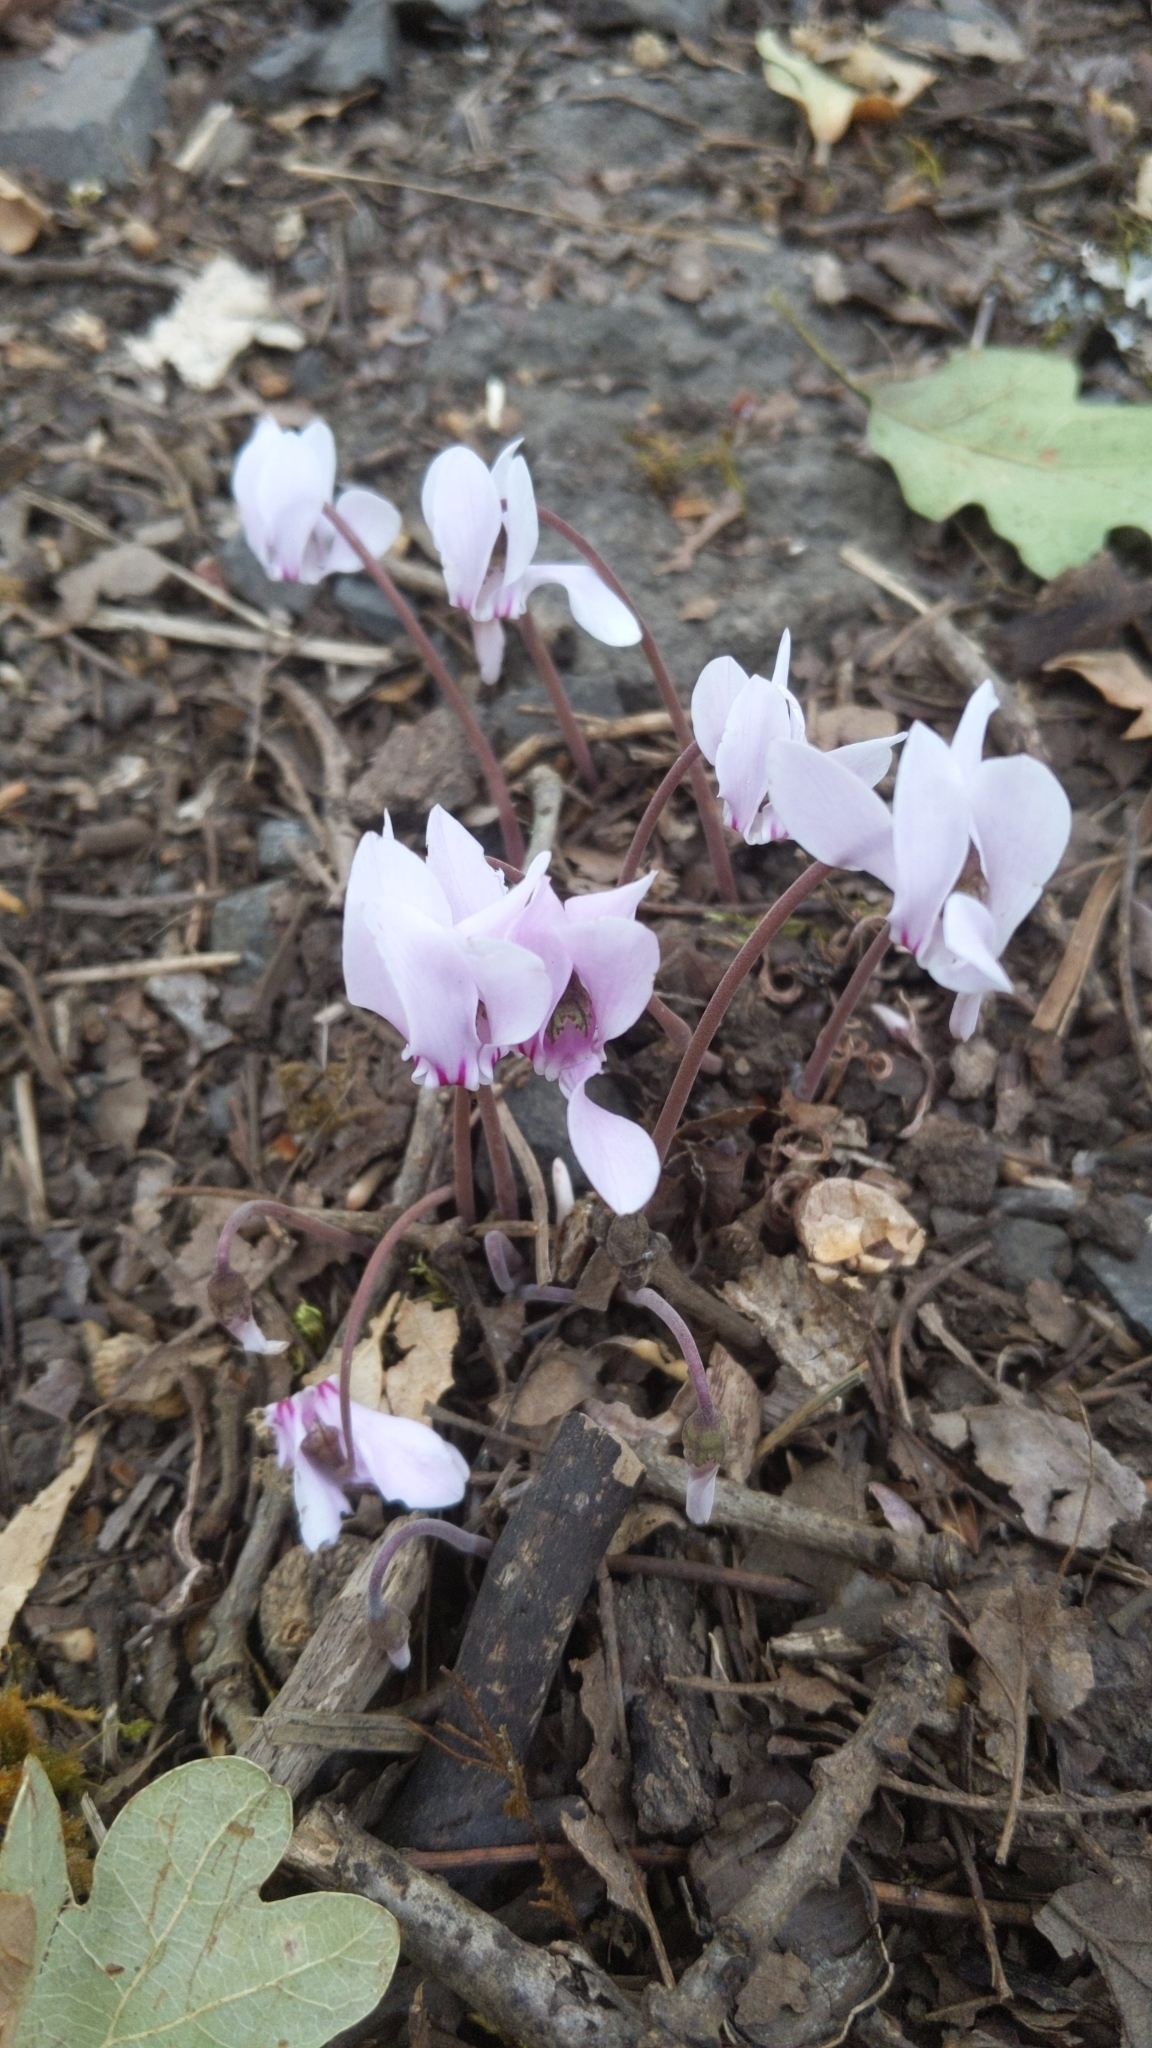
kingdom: Plantae
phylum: Tracheophyta
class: Magnoliopsida
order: Ericales
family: Primulaceae
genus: Cyclamen
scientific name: Cyclamen hederifolium
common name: Sowbread
